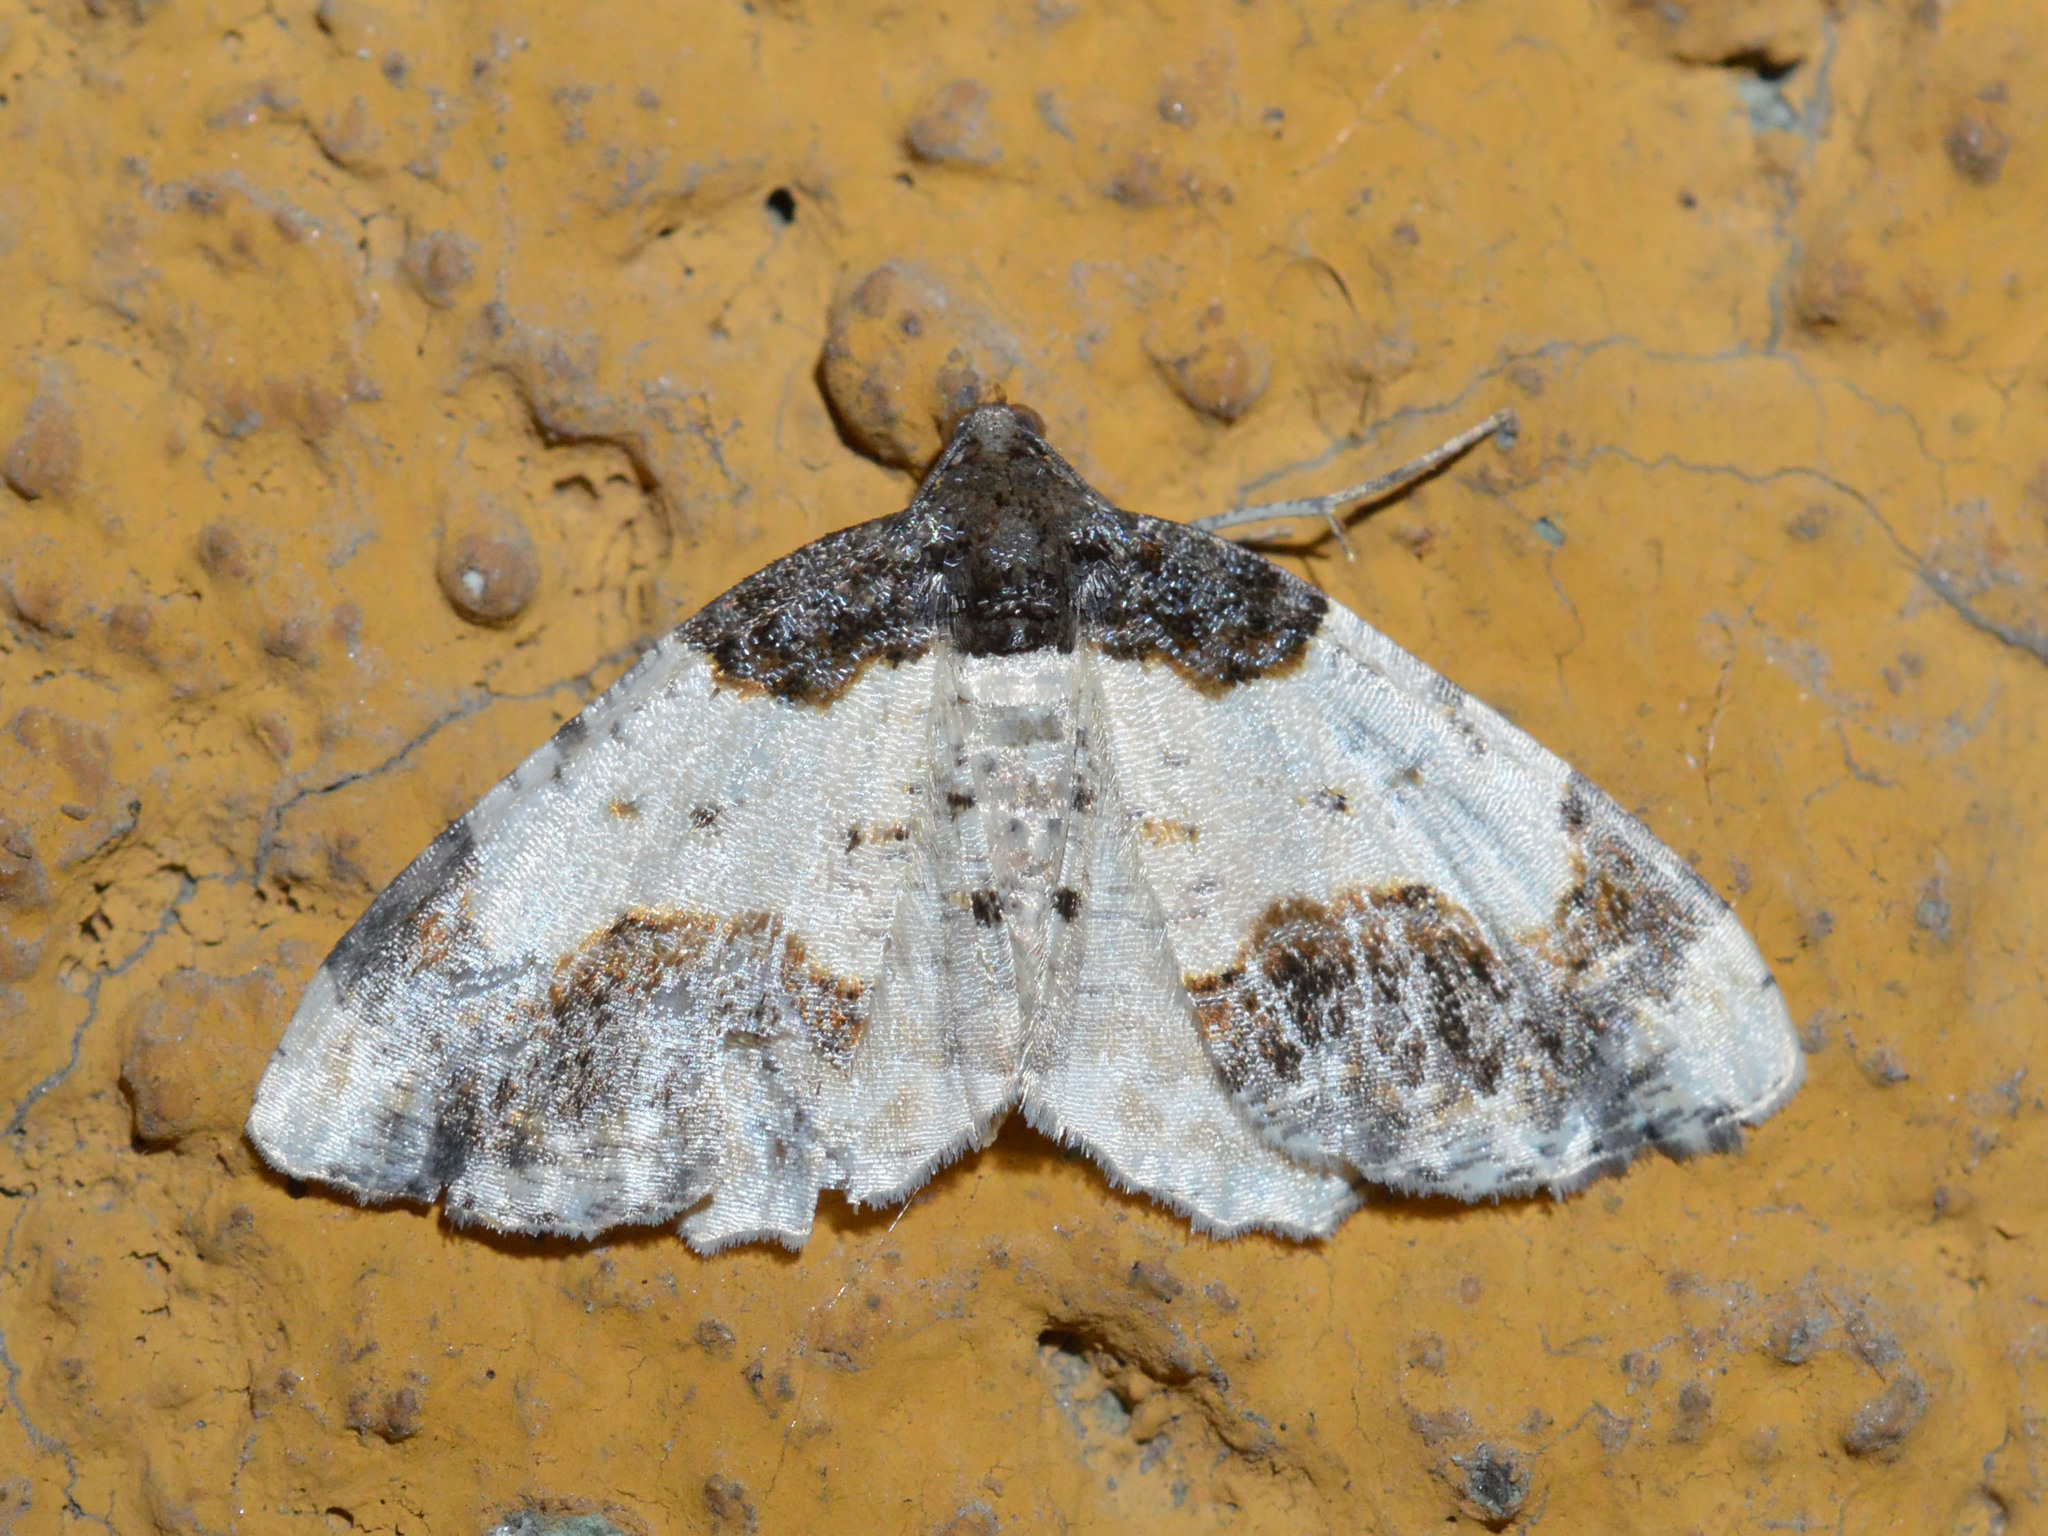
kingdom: Animalia
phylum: Arthropoda
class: Insecta
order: Lepidoptera
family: Geometridae
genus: Ligdia
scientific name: Ligdia adustata
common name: Scorched carpet
